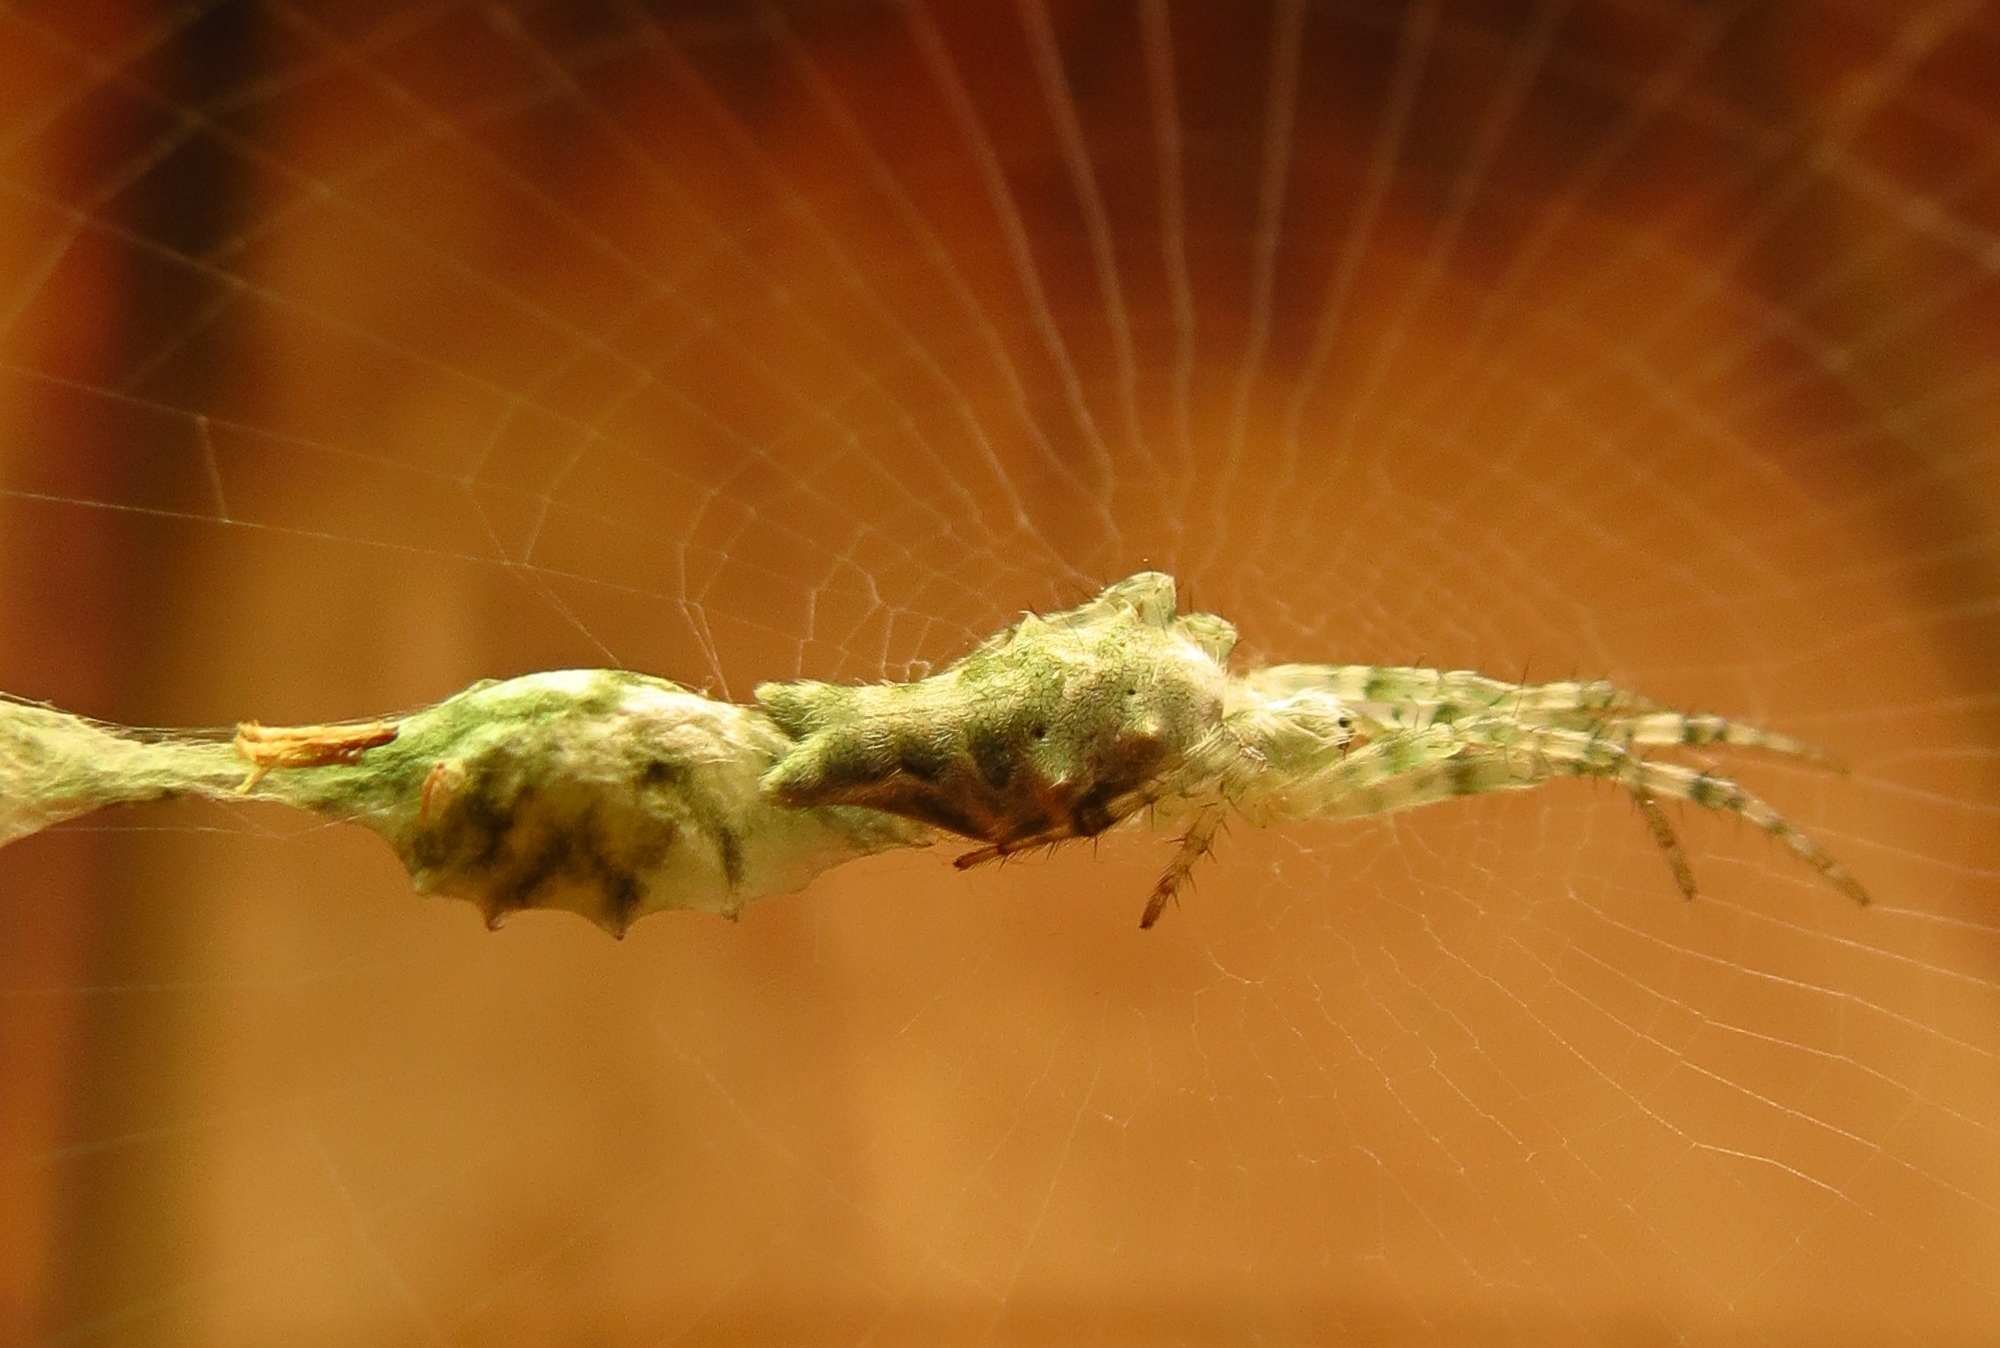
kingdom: Animalia
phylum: Arthropoda
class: Arachnida
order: Araneae
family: Araneidae
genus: Allocyclosa
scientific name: Allocyclosa bifurca
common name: Orb weavers
